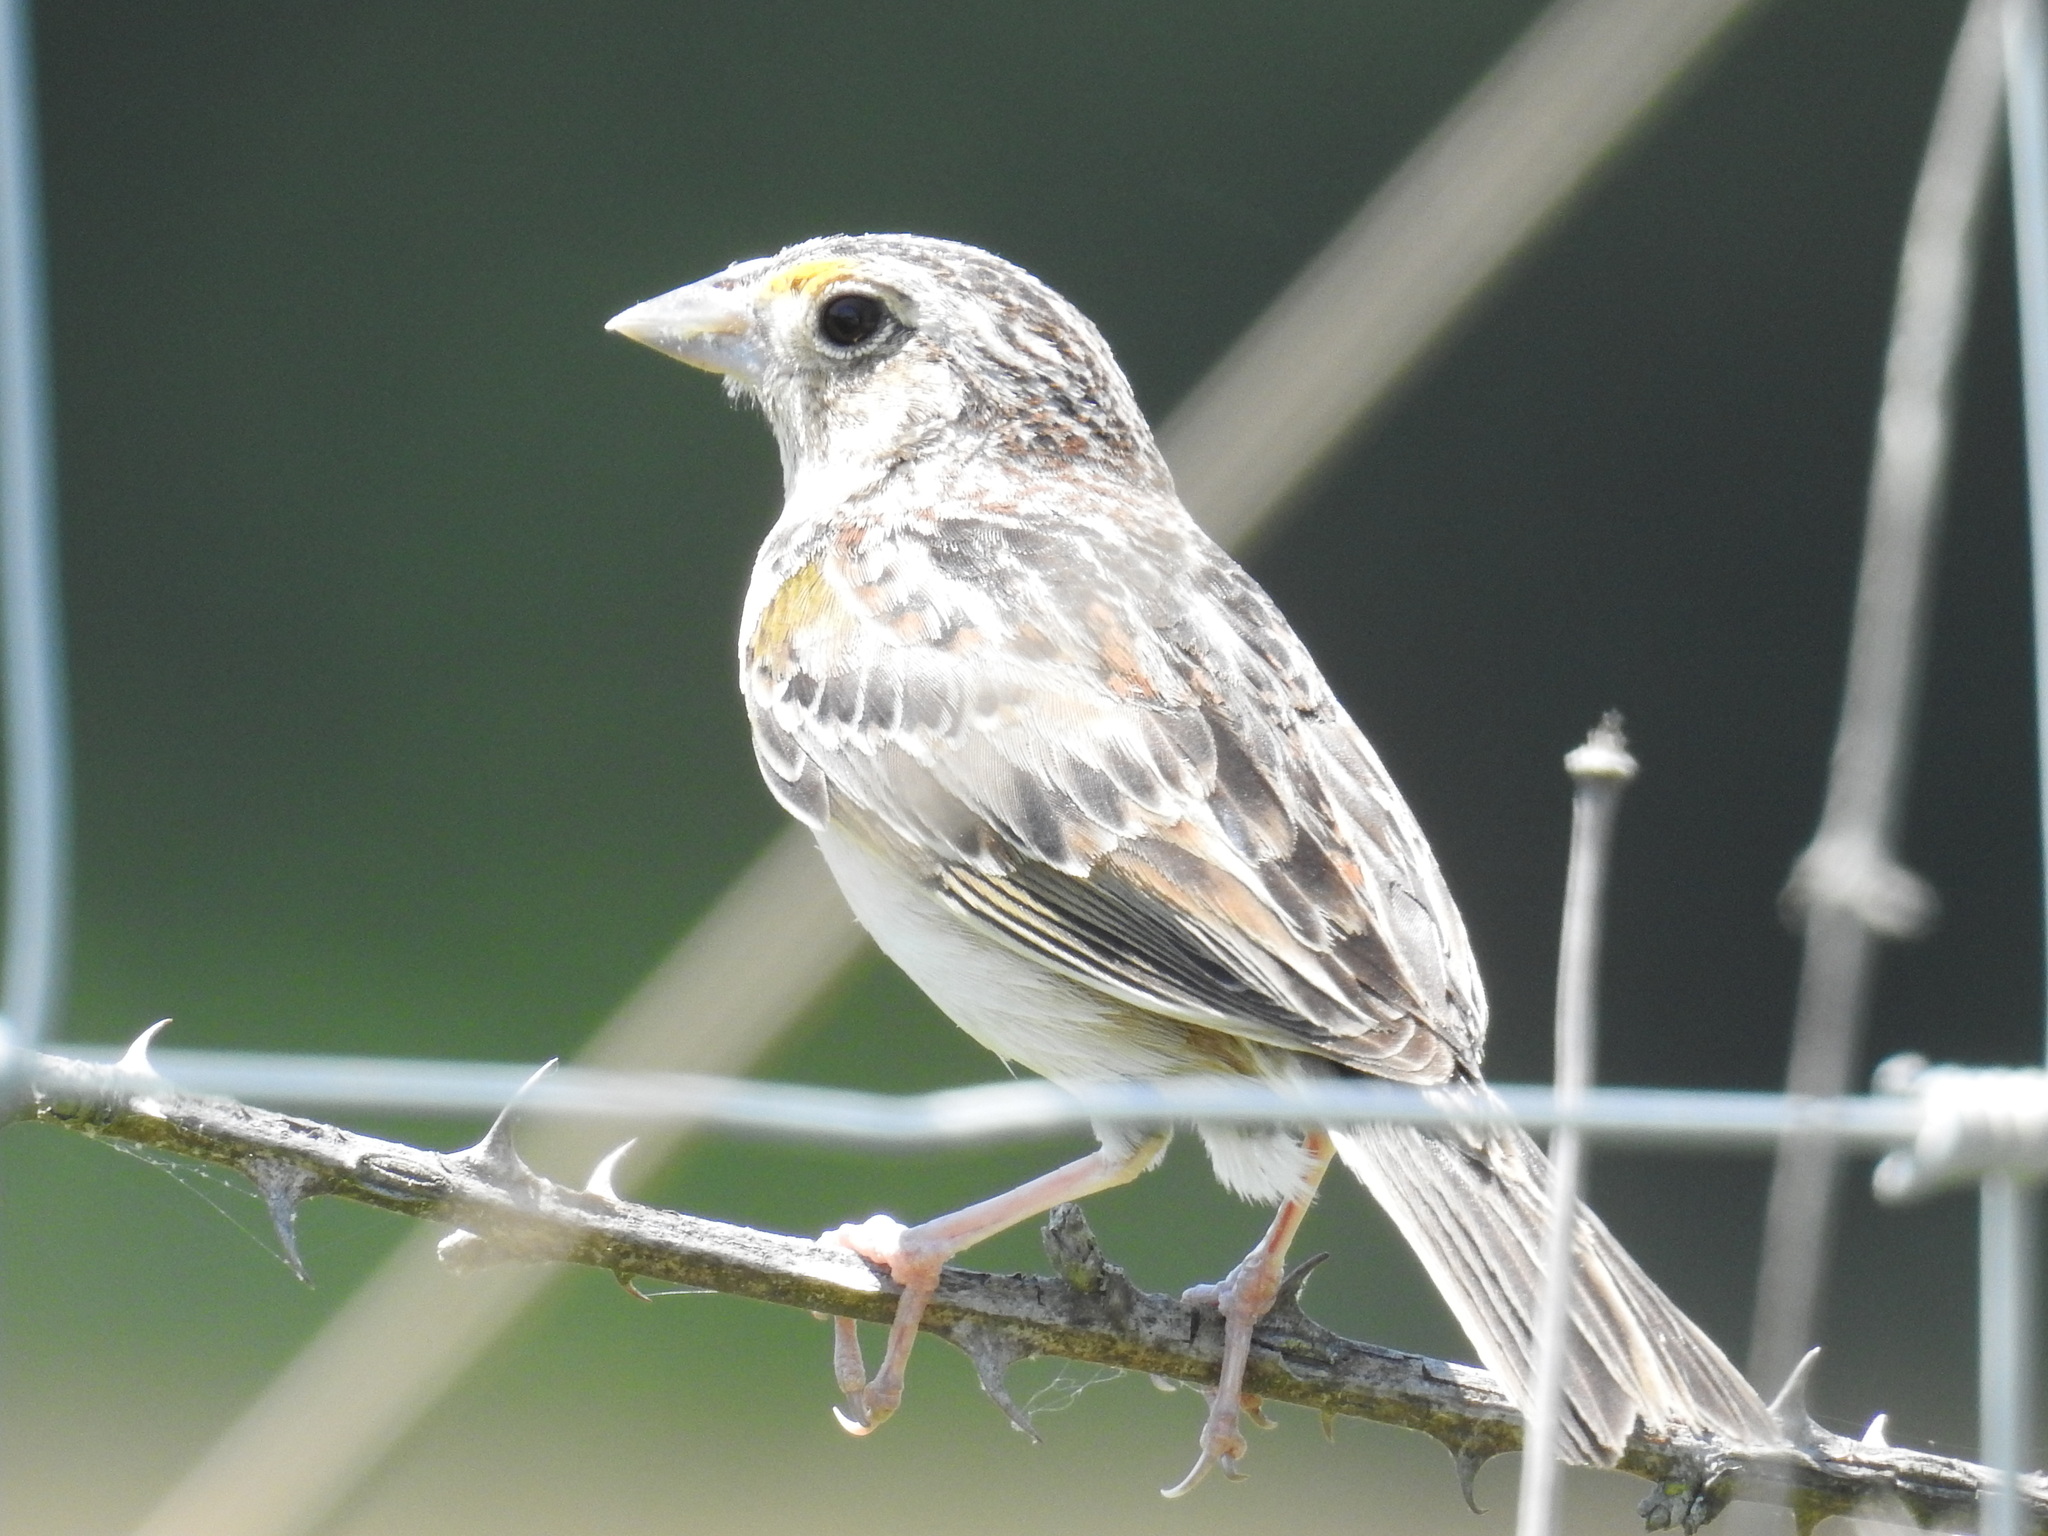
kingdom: Animalia
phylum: Chordata
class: Aves
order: Passeriformes
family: Passerellidae
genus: Ammodramus
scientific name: Ammodramus savannarum
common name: Grasshopper sparrow
